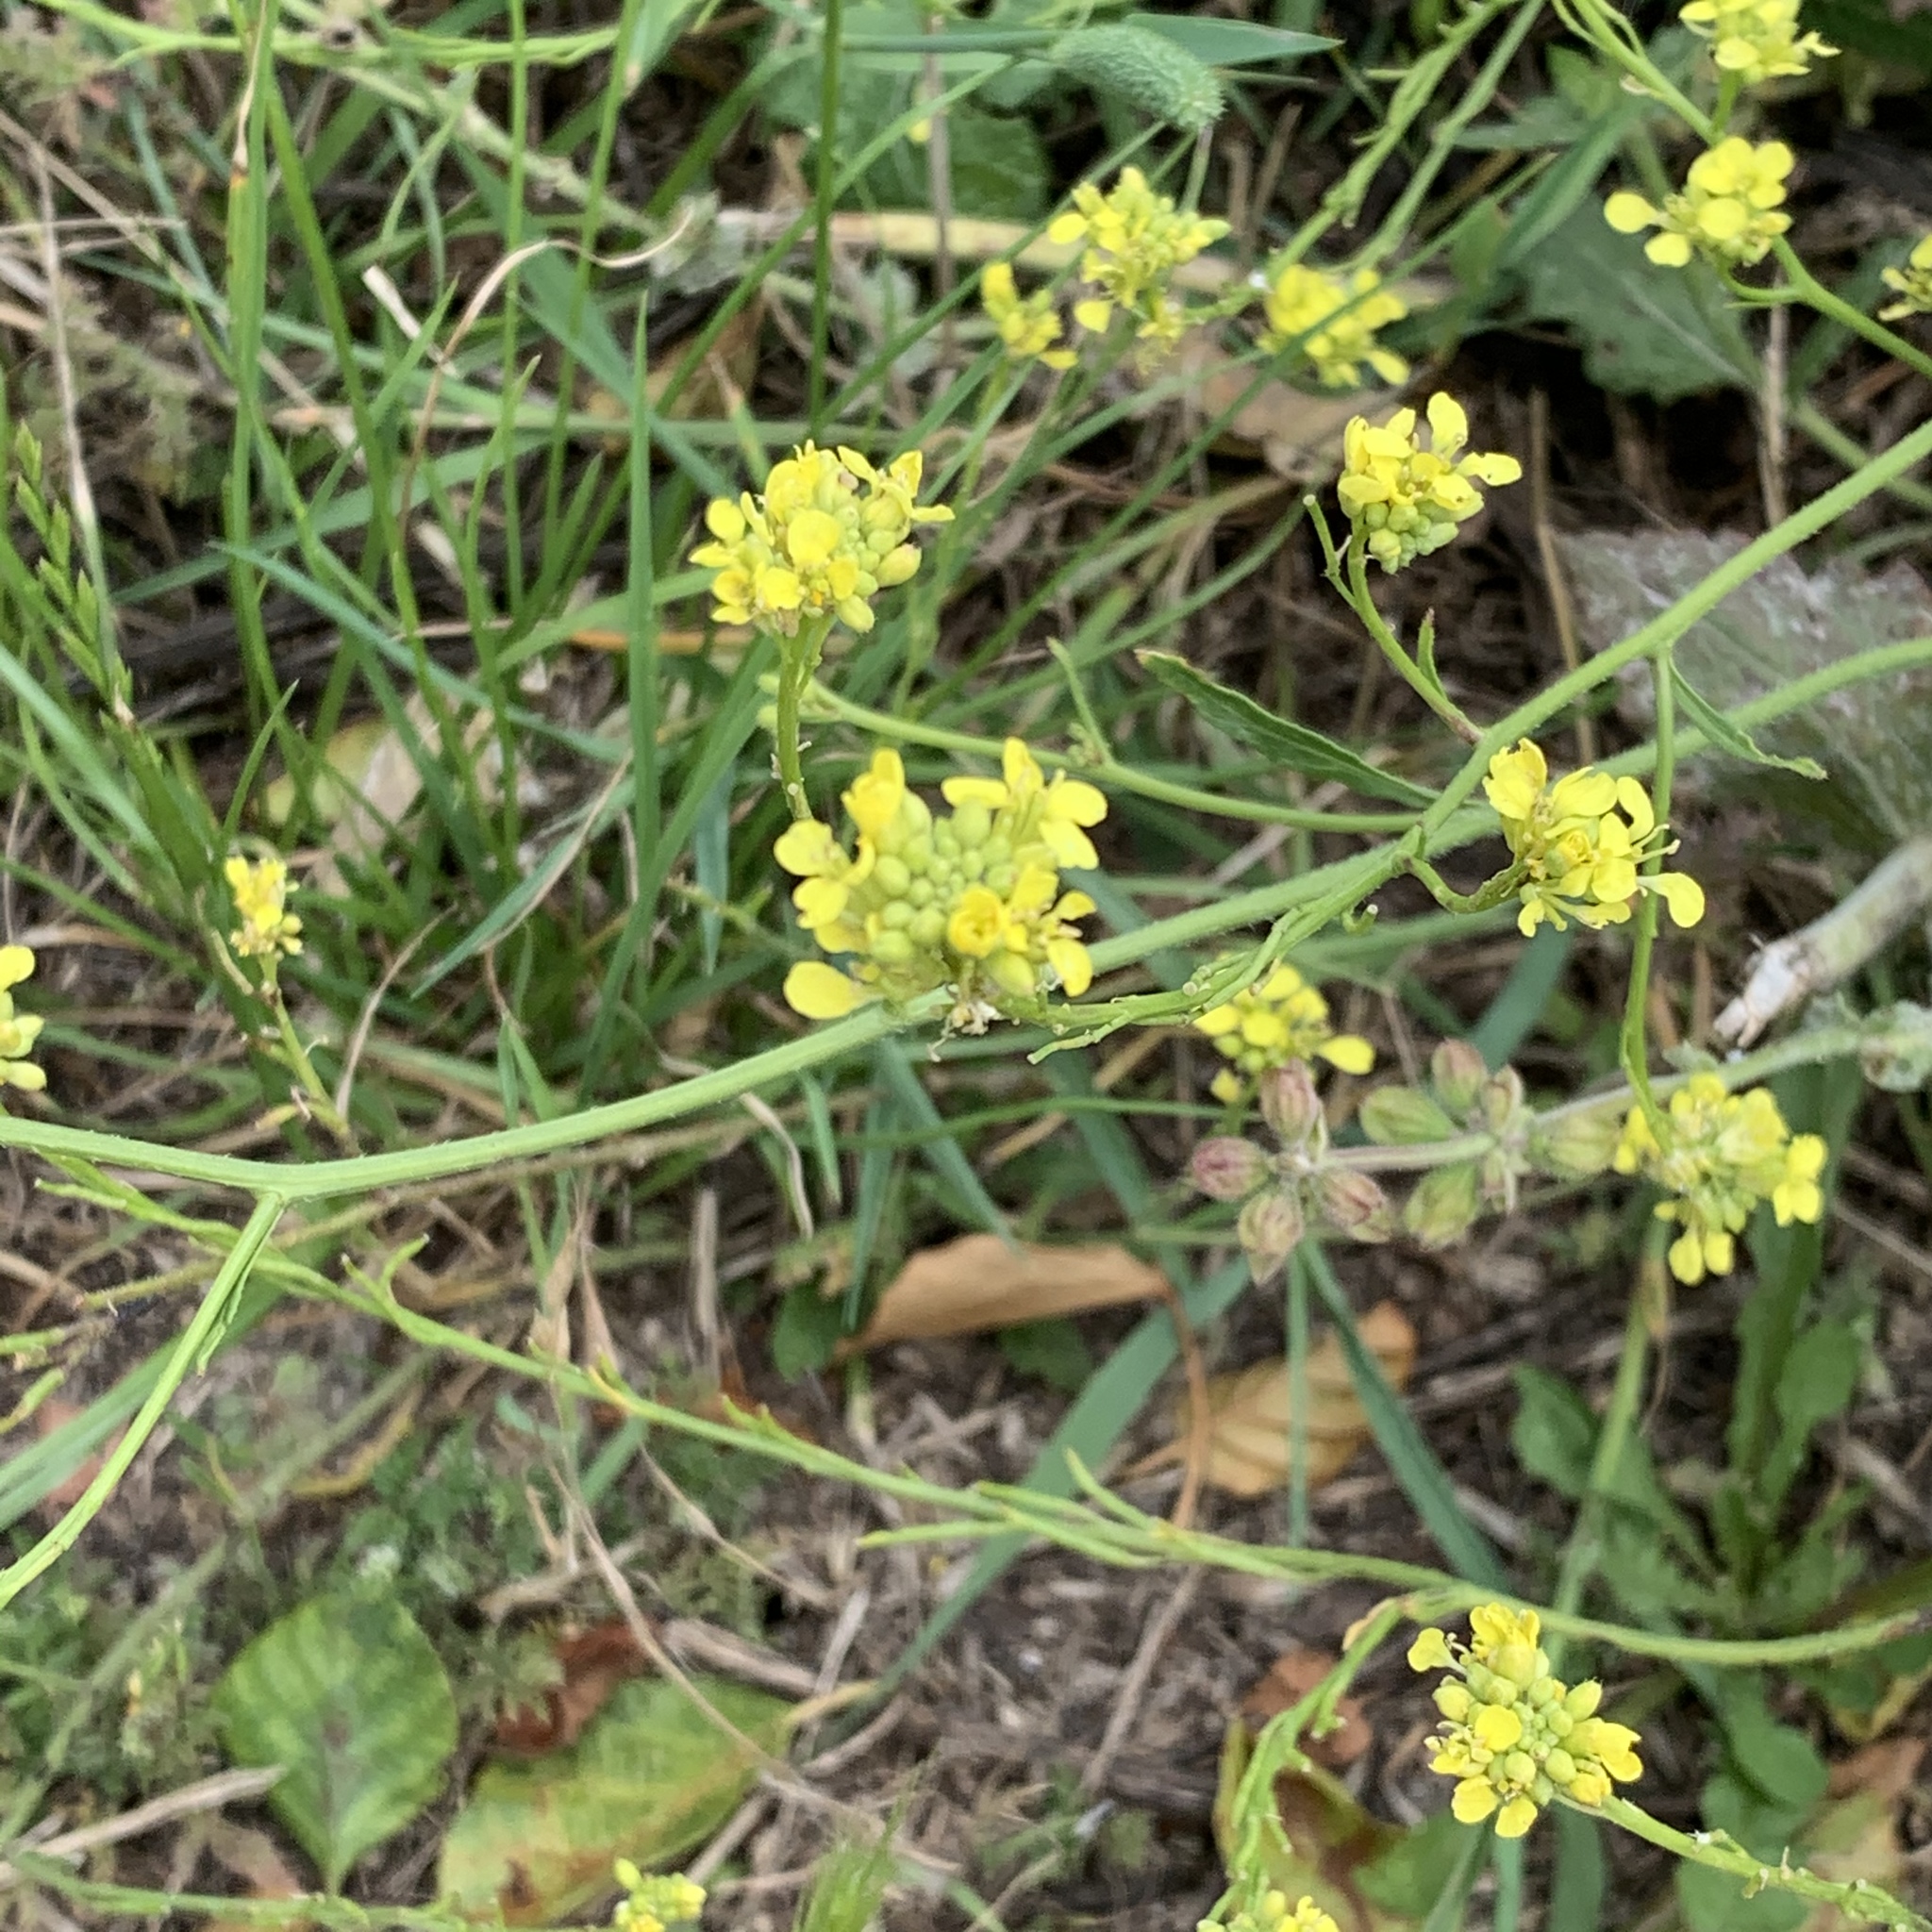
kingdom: Plantae
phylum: Tracheophyta
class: Magnoliopsida
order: Brassicales
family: Brassicaceae
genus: Sinapis
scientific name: Sinapis arvensis
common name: Charlock
